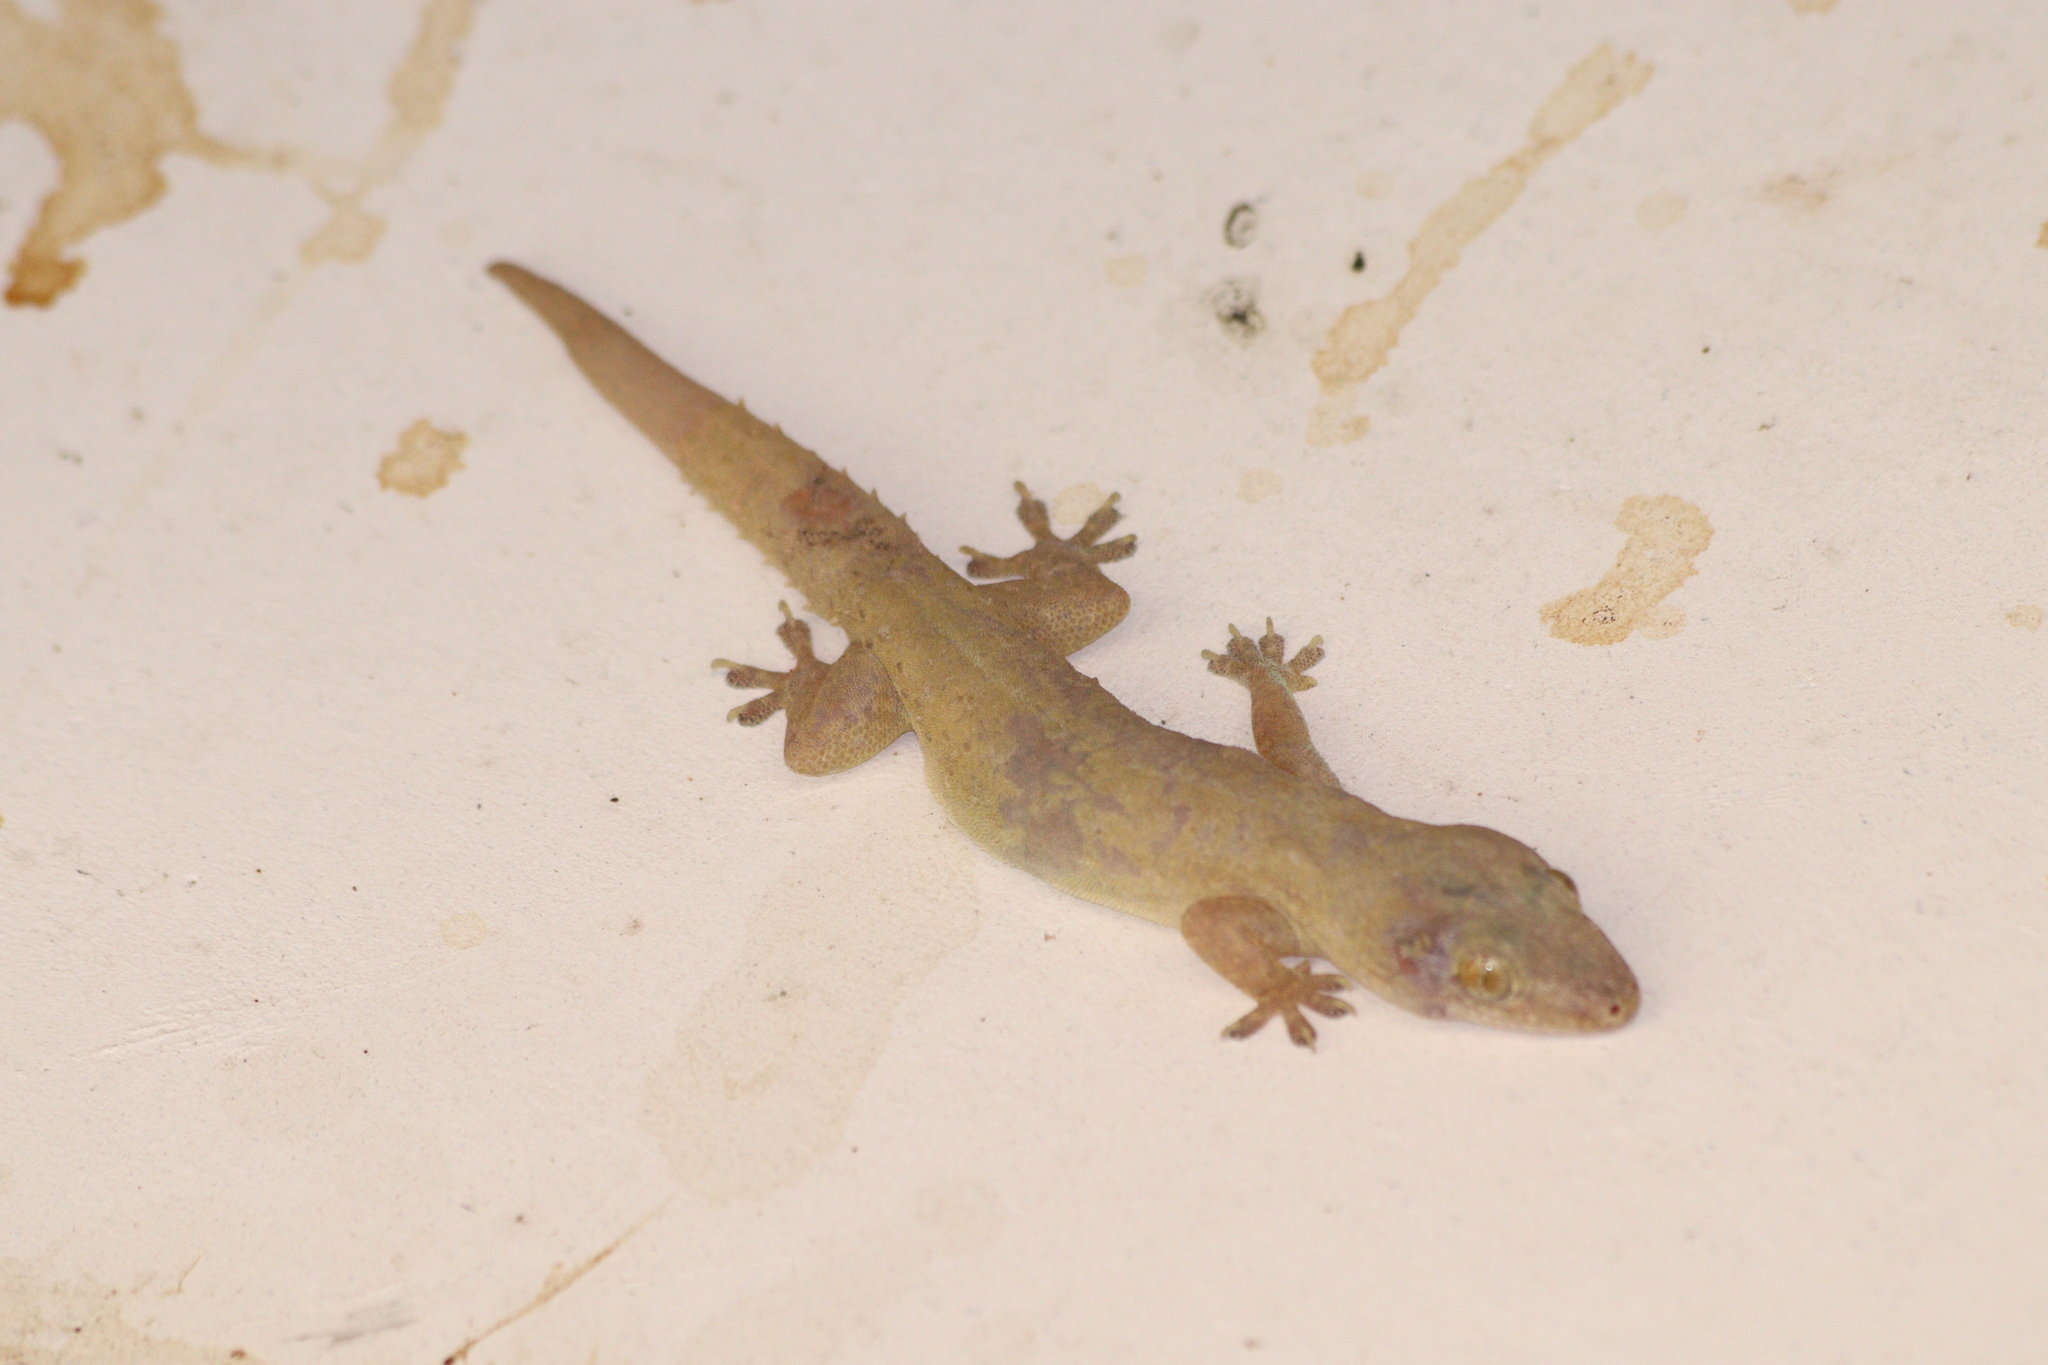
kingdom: Animalia
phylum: Chordata
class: Squamata
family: Gekkonidae
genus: Hemidactylus
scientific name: Hemidactylus frenatus
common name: Common house gecko
